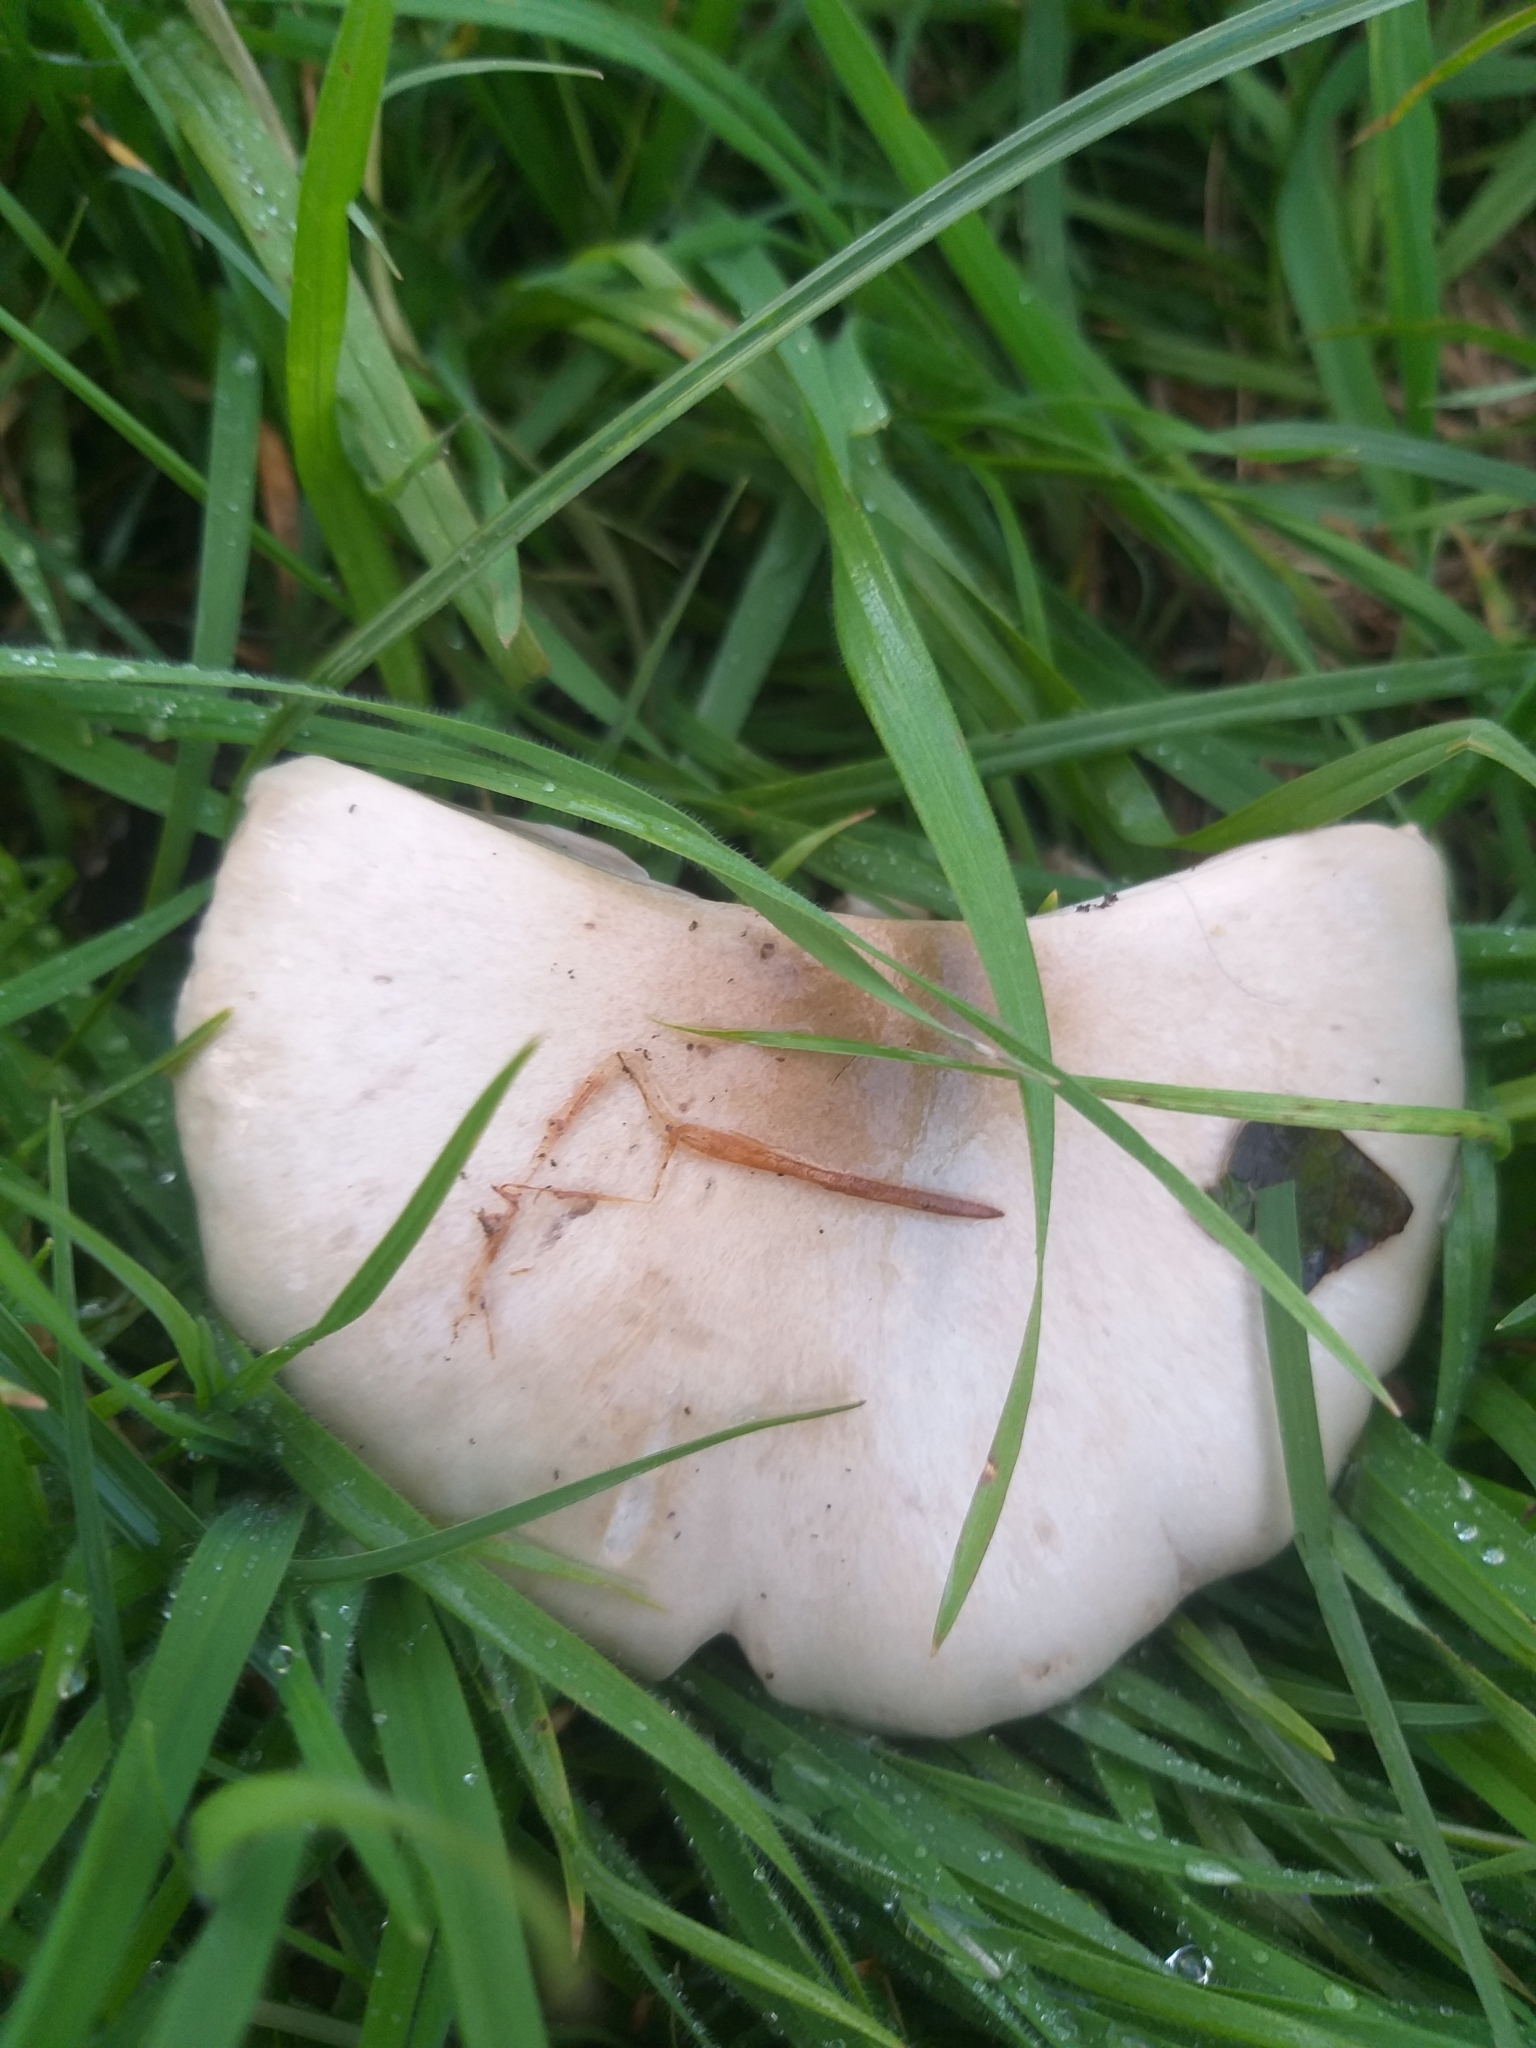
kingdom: Fungi
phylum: Basidiomycota
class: Agaricomycetes
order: Agaricales
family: Pluteaceae
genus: Volvopluteus
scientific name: Volvopluteus gloiocephalus
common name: Stubble rosegill
